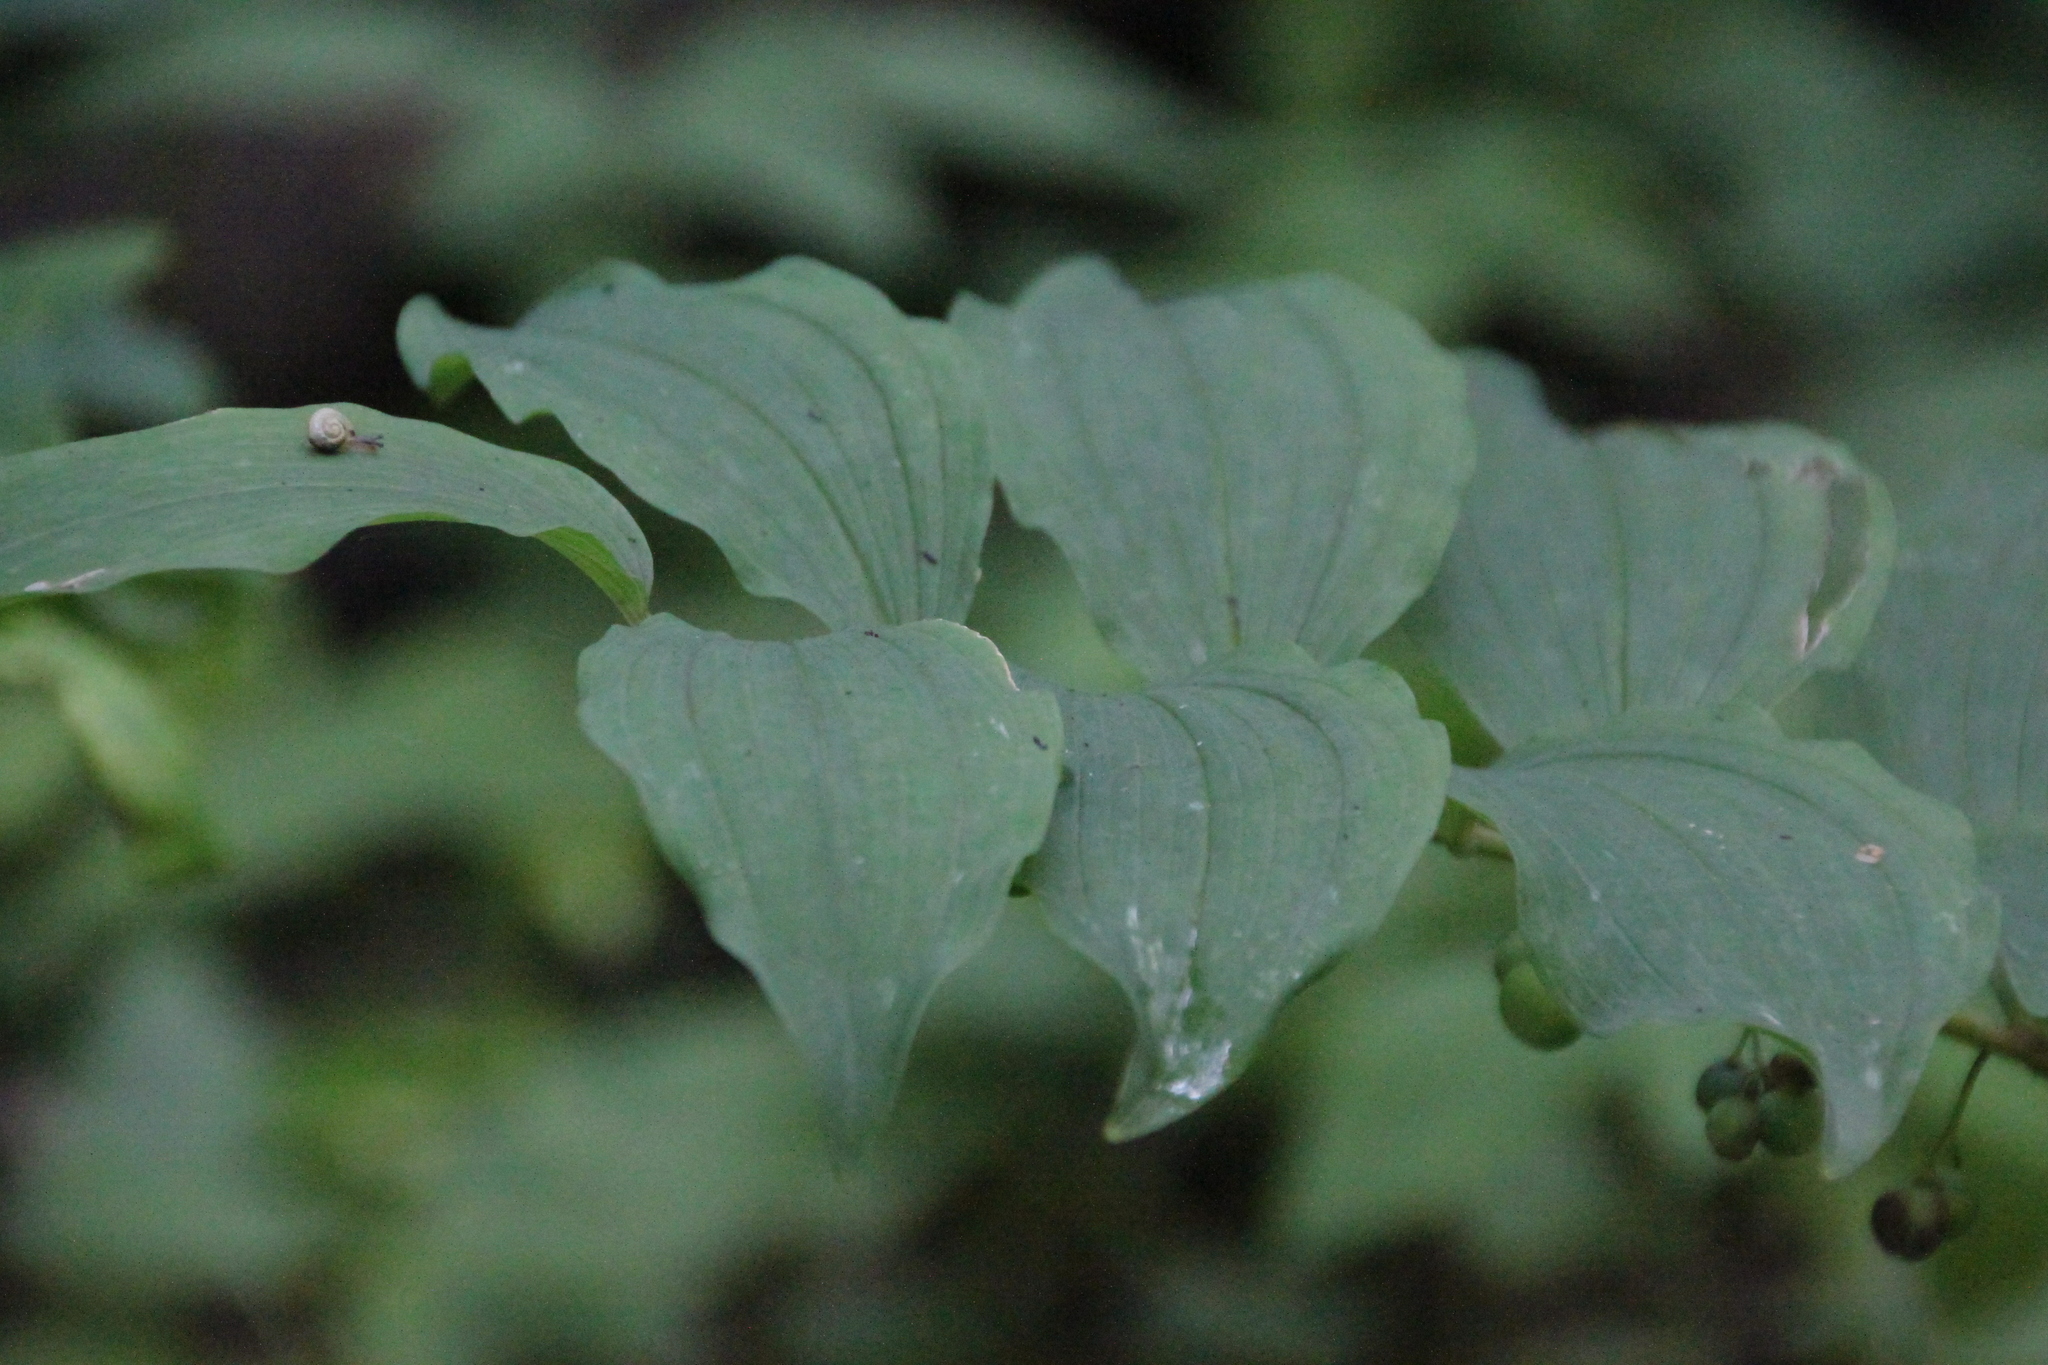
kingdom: Plantae
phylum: Tracheophyta
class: Liliopsida
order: Asparagales
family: Asparagaceae
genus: Polygonatum
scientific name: Polygonatum multiflorum
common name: Solomon's-seal
